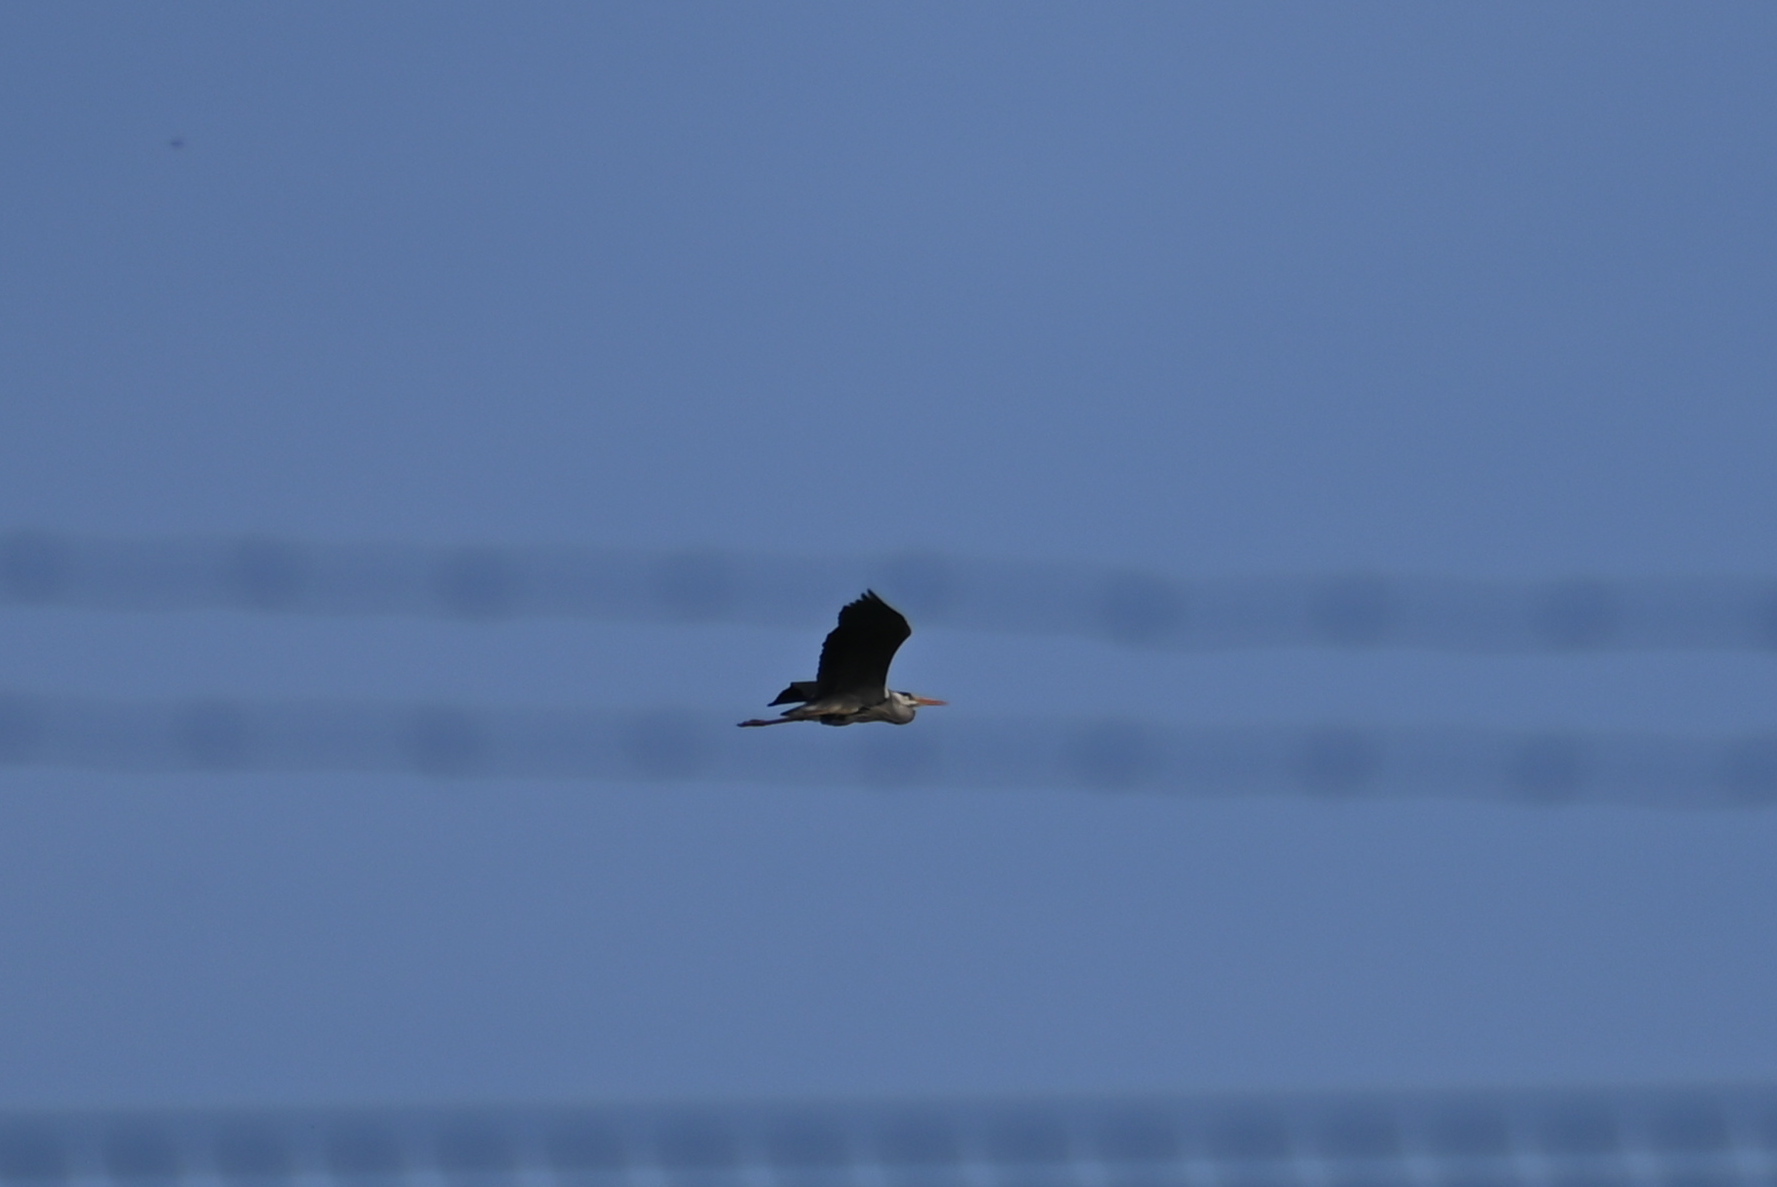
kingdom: Animalia
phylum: Chordata
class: Aves
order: Pelecaniformes
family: Ardeidae
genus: Ardea
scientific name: Ardea cinerea
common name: Grey heron
